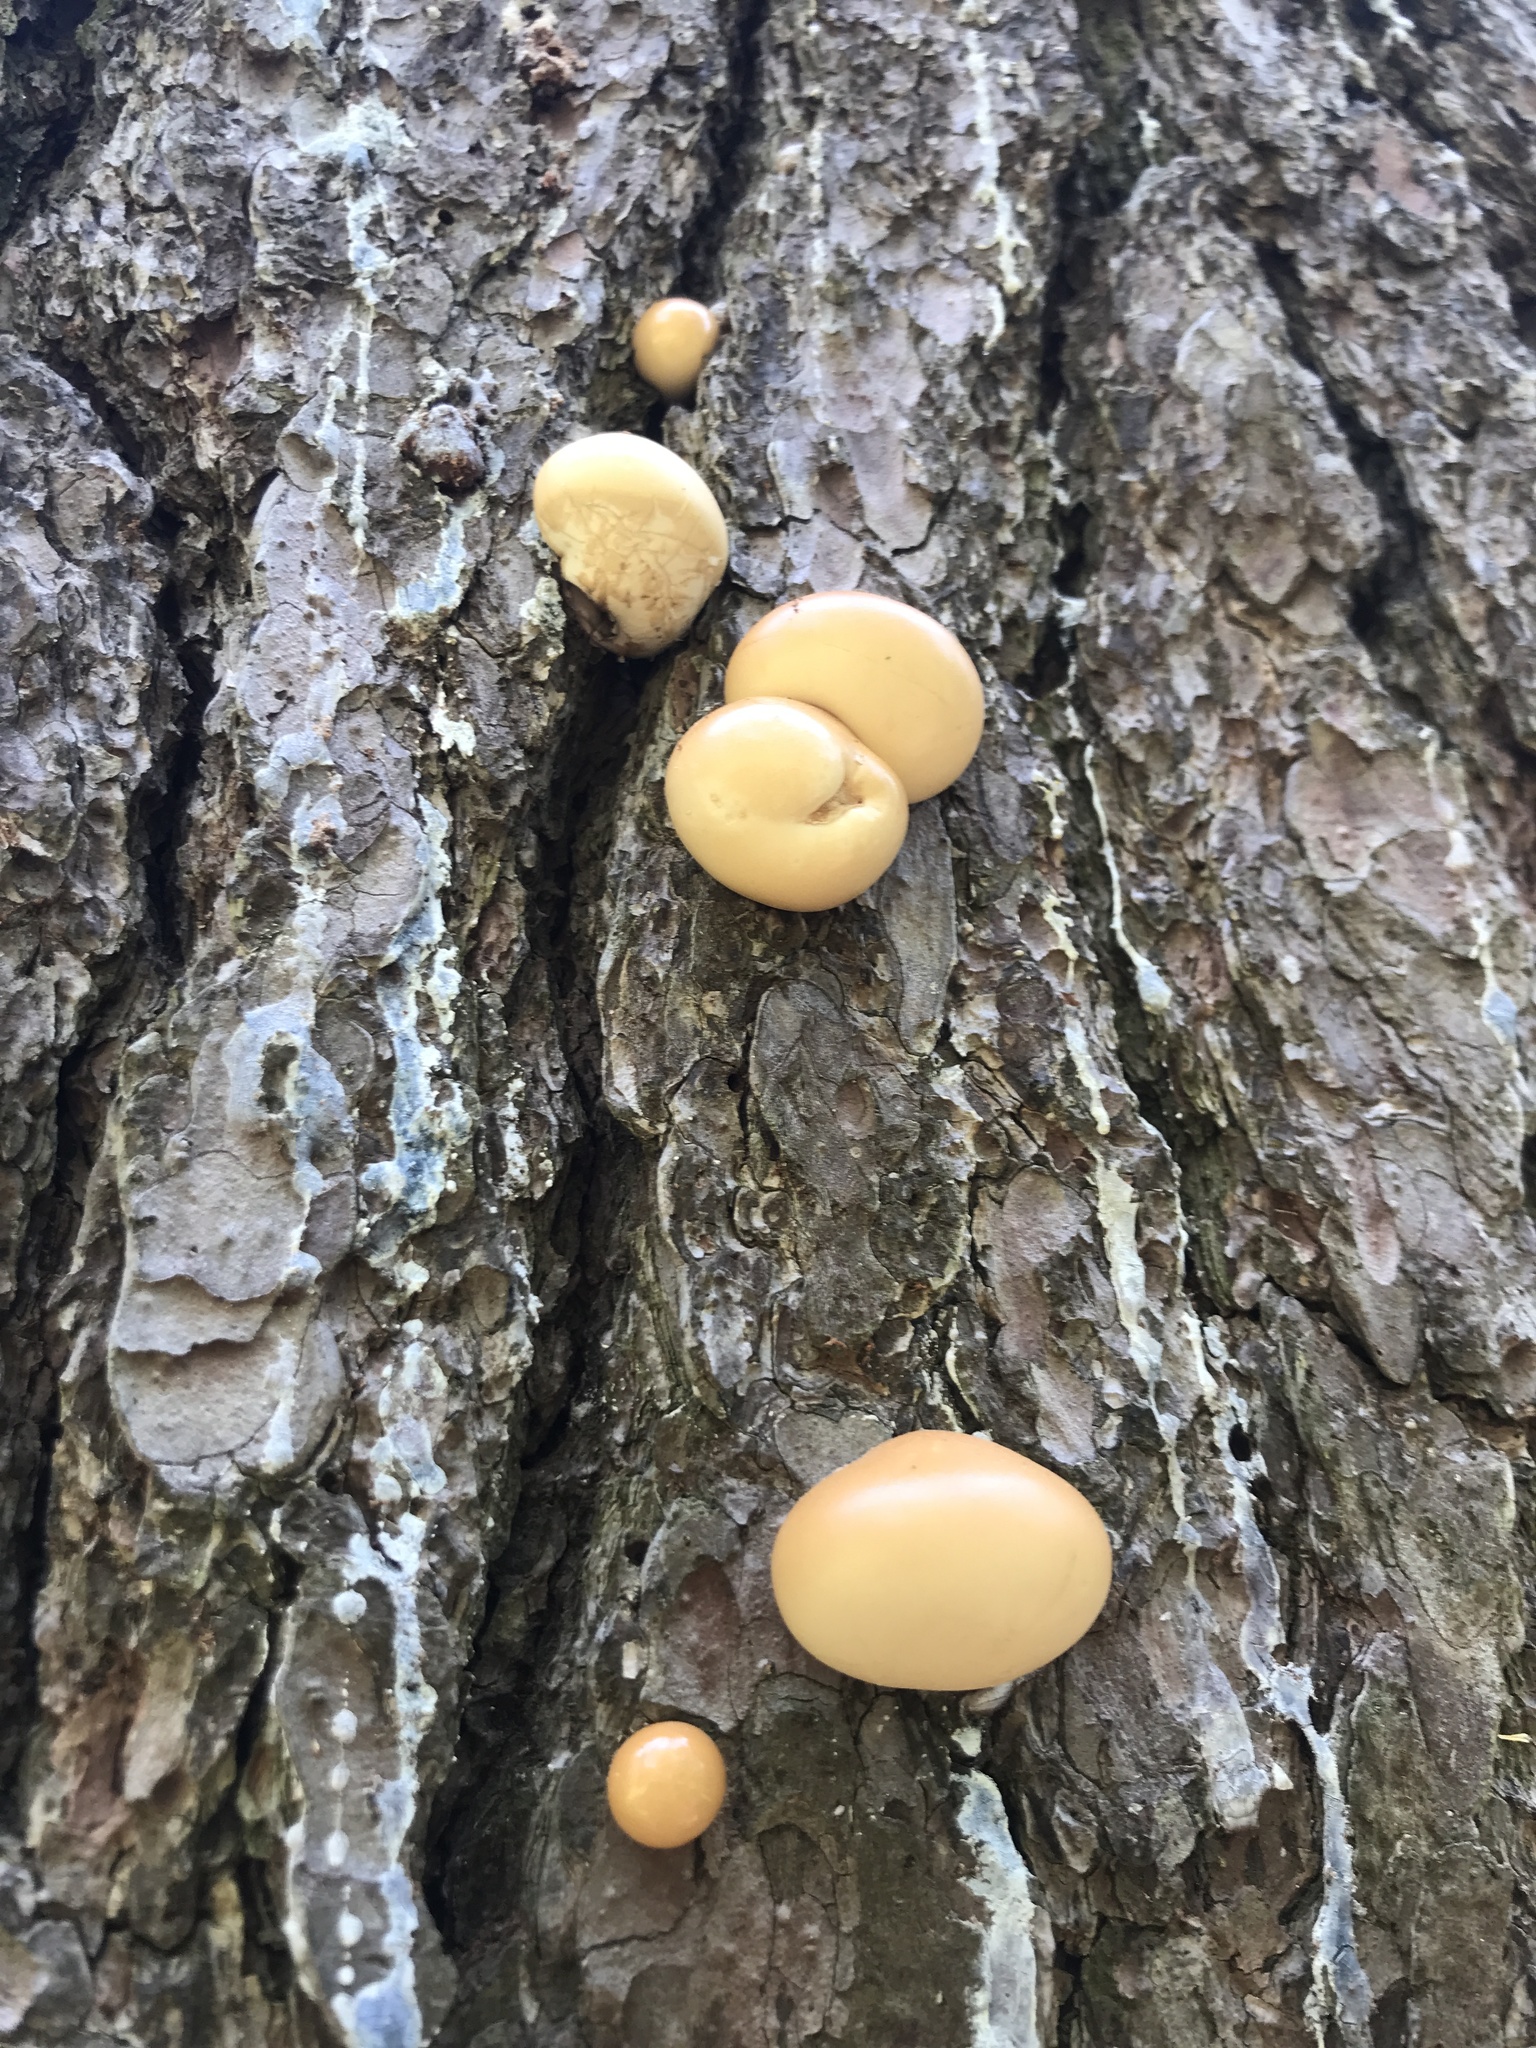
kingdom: Fungi
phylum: Basidiomycota
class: Agaricomycetes
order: Polyporales
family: Polyporaceae
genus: Cryptoporus
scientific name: Cryptoporus volvatus
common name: Veiled polypore
